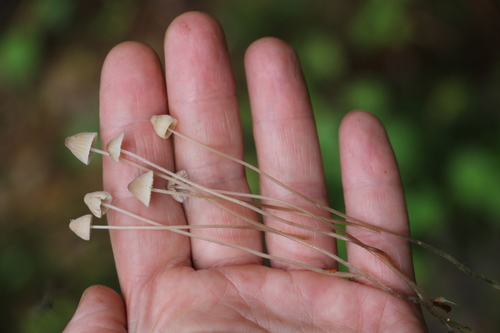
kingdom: Fungi
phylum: Basidiomycota
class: Agaricomycetes
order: Agaricales
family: Mycenaceae
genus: Mycena
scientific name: Mycena mirata
